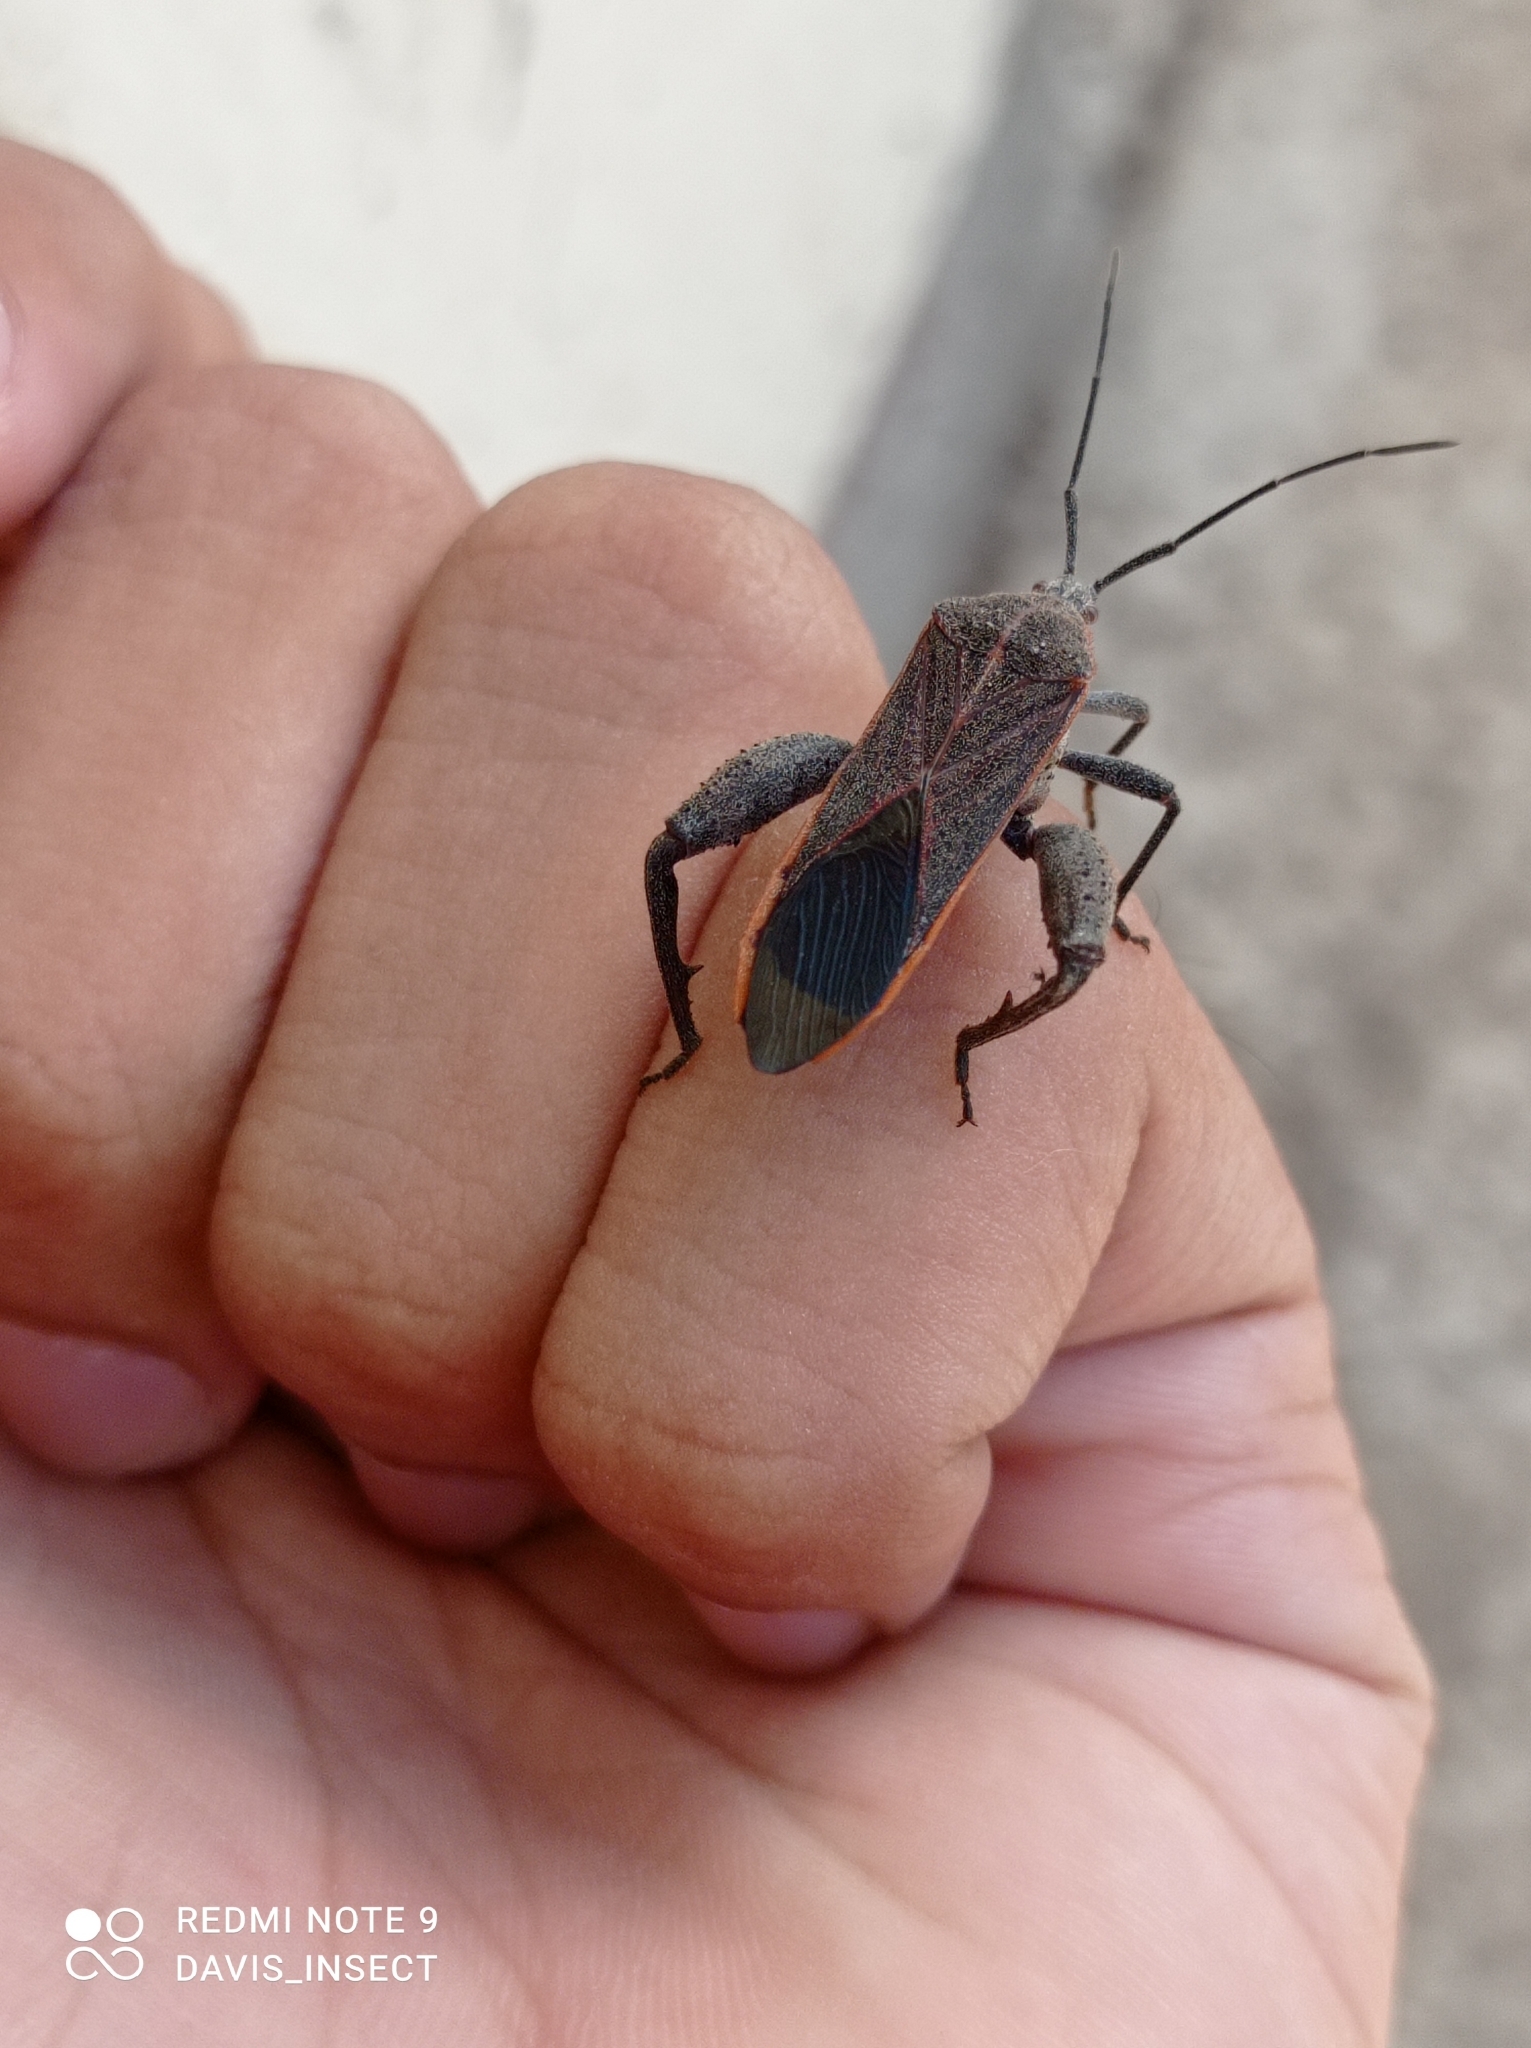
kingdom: Animalia
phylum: Arthropoda
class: Insecta
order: Hemiptera
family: Coreidae
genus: Physomerus
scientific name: Physomerus grossipes
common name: Squash bug
